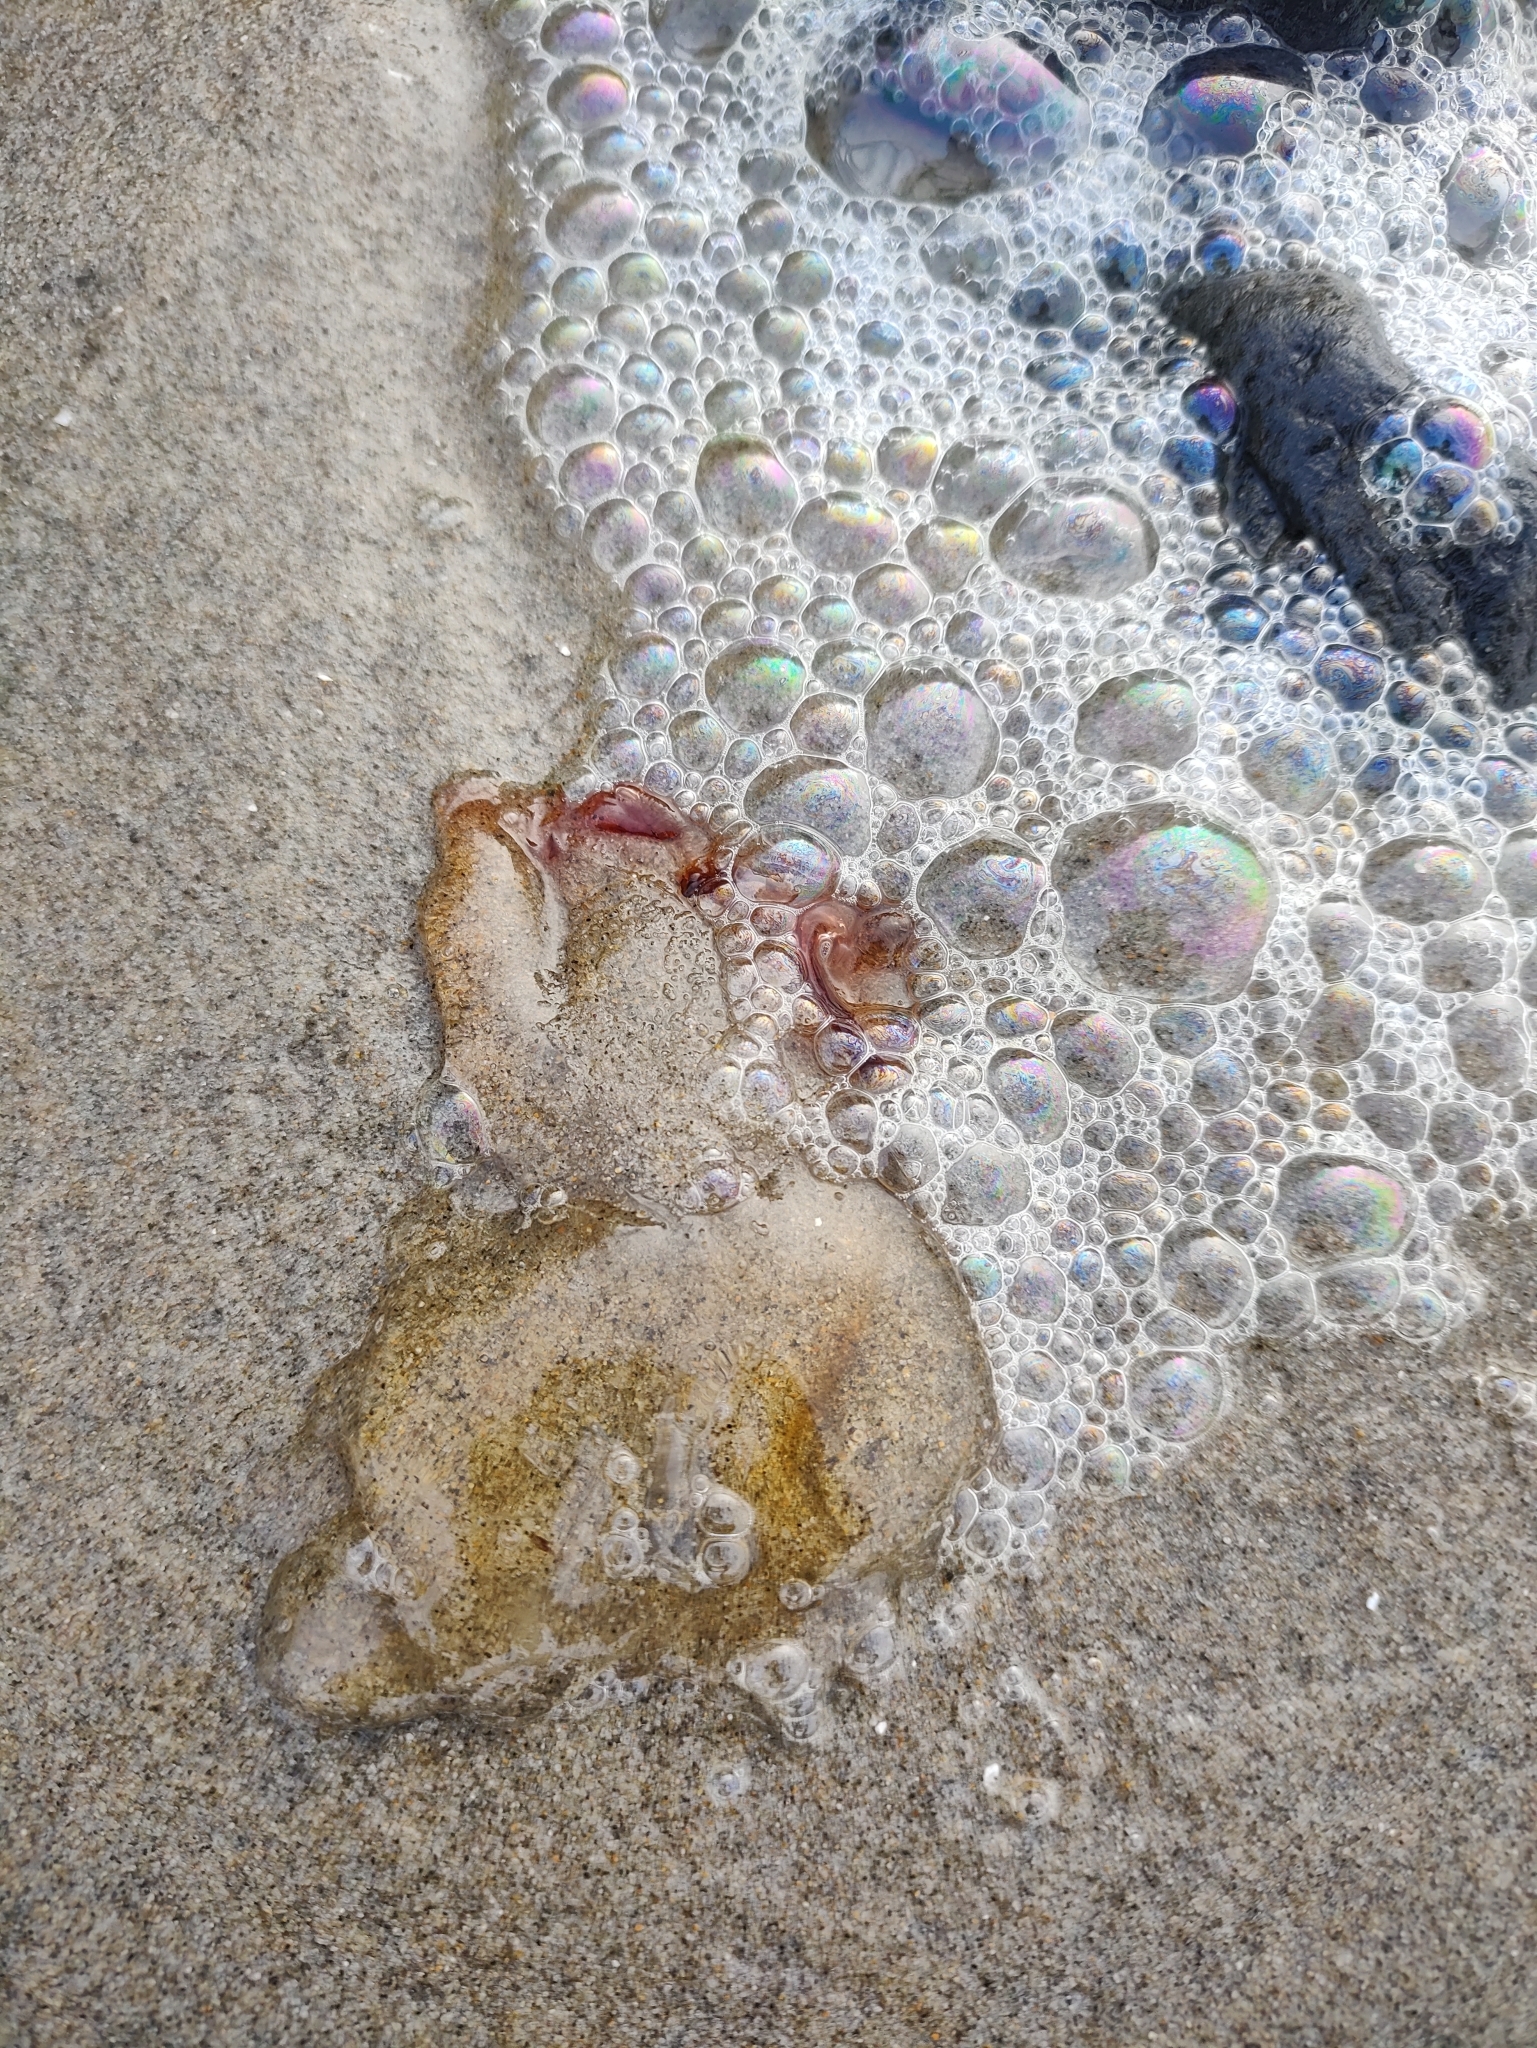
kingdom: Animalia
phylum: Cnidaria
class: Scyphozoa
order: Semaeostomeae
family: Pelagiidae
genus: Chrysaora
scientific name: Chrysaora fuscescens
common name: Sea nettle
